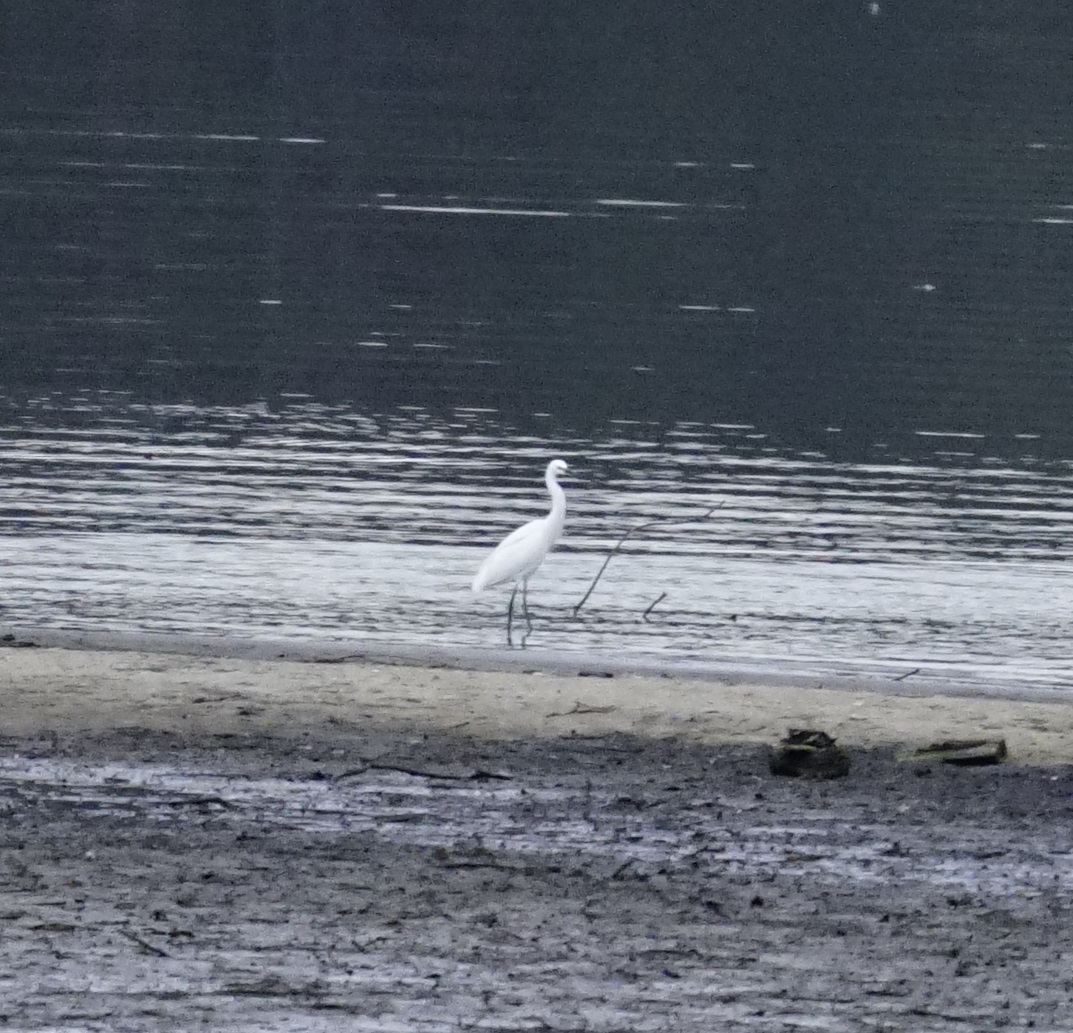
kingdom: Animalia
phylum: Chordata
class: Aves
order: Pelecaniformes
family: Ardeidae
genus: Egretta
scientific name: Egretta garzetta
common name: Little egret
